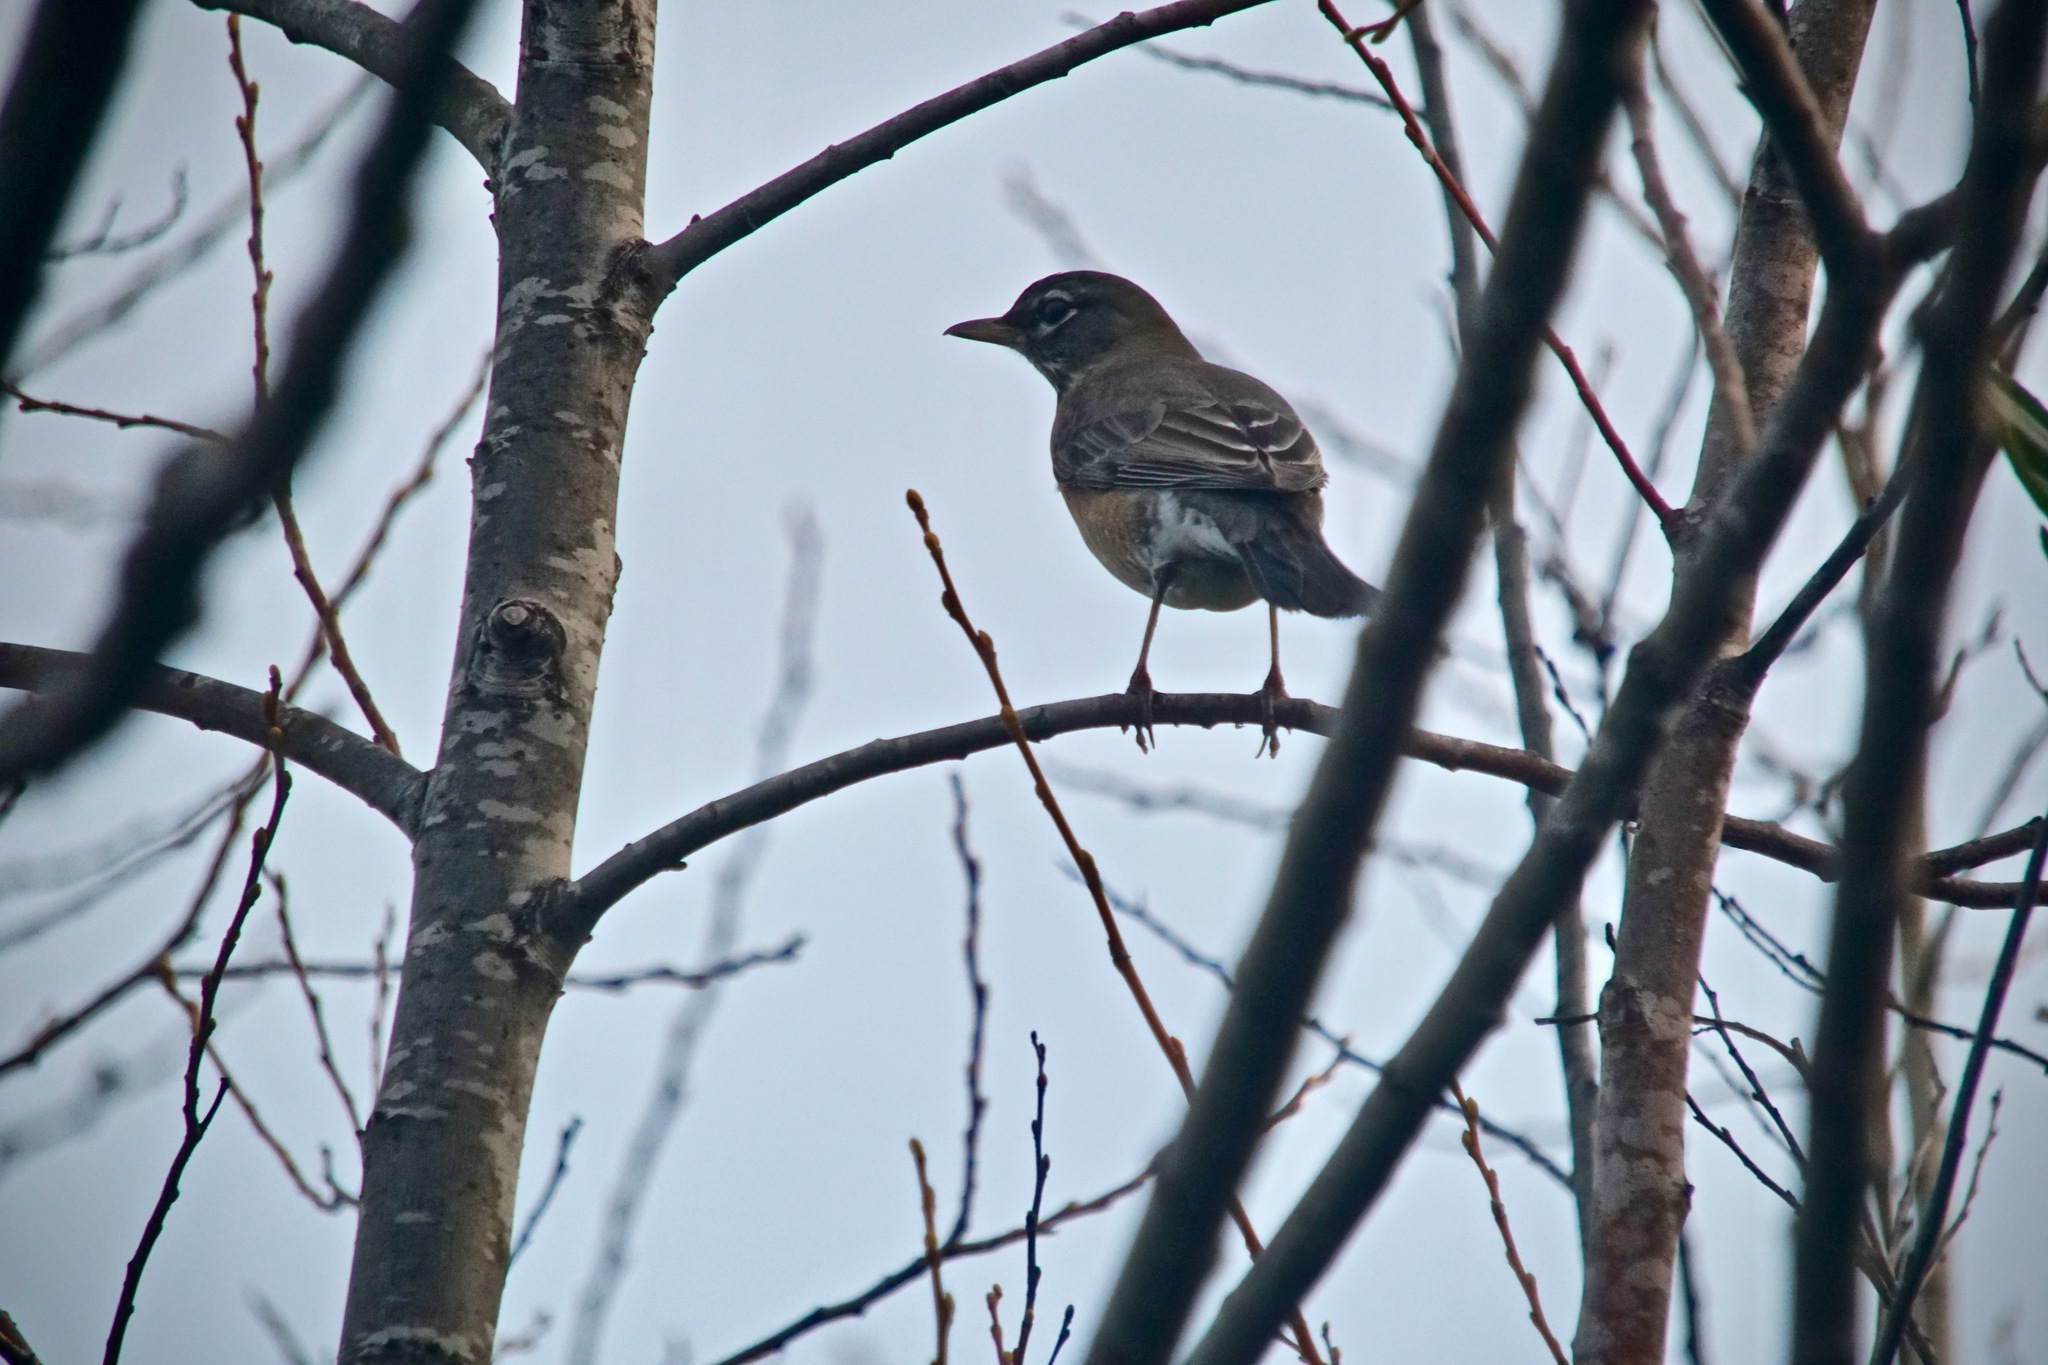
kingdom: Animalia
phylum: Chordata
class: Aves
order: Passeriformes
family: Turdidae
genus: Turdus
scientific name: Turdus migratorius
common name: American robin
